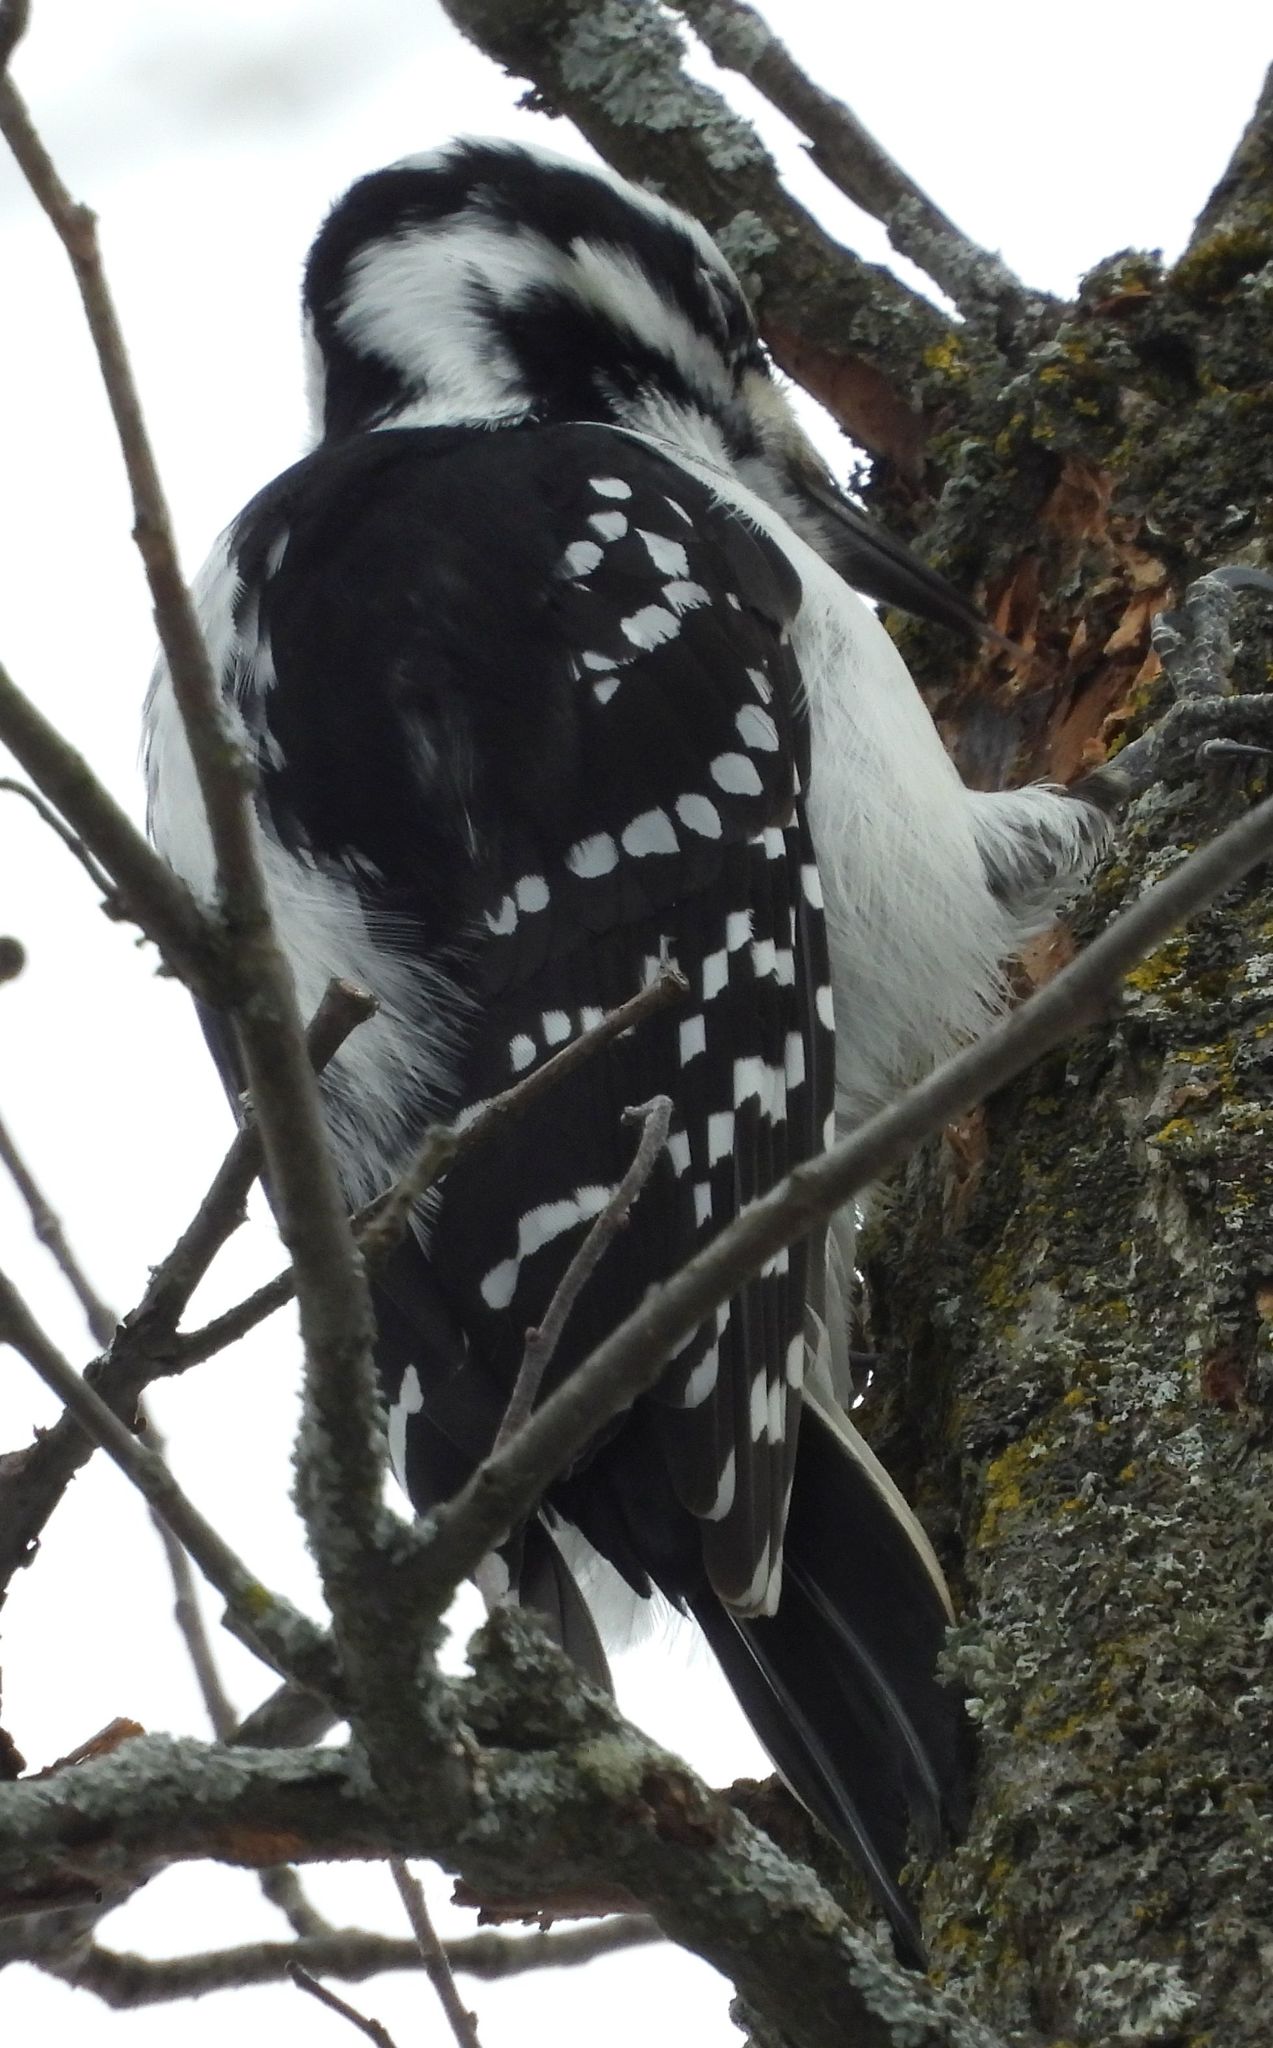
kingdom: Animalia
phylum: Chordata
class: Aves
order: Piciformes
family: Picidae
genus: Leuconotopicus
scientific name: Leuconotopicus villosus
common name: Hairy woodpecker
